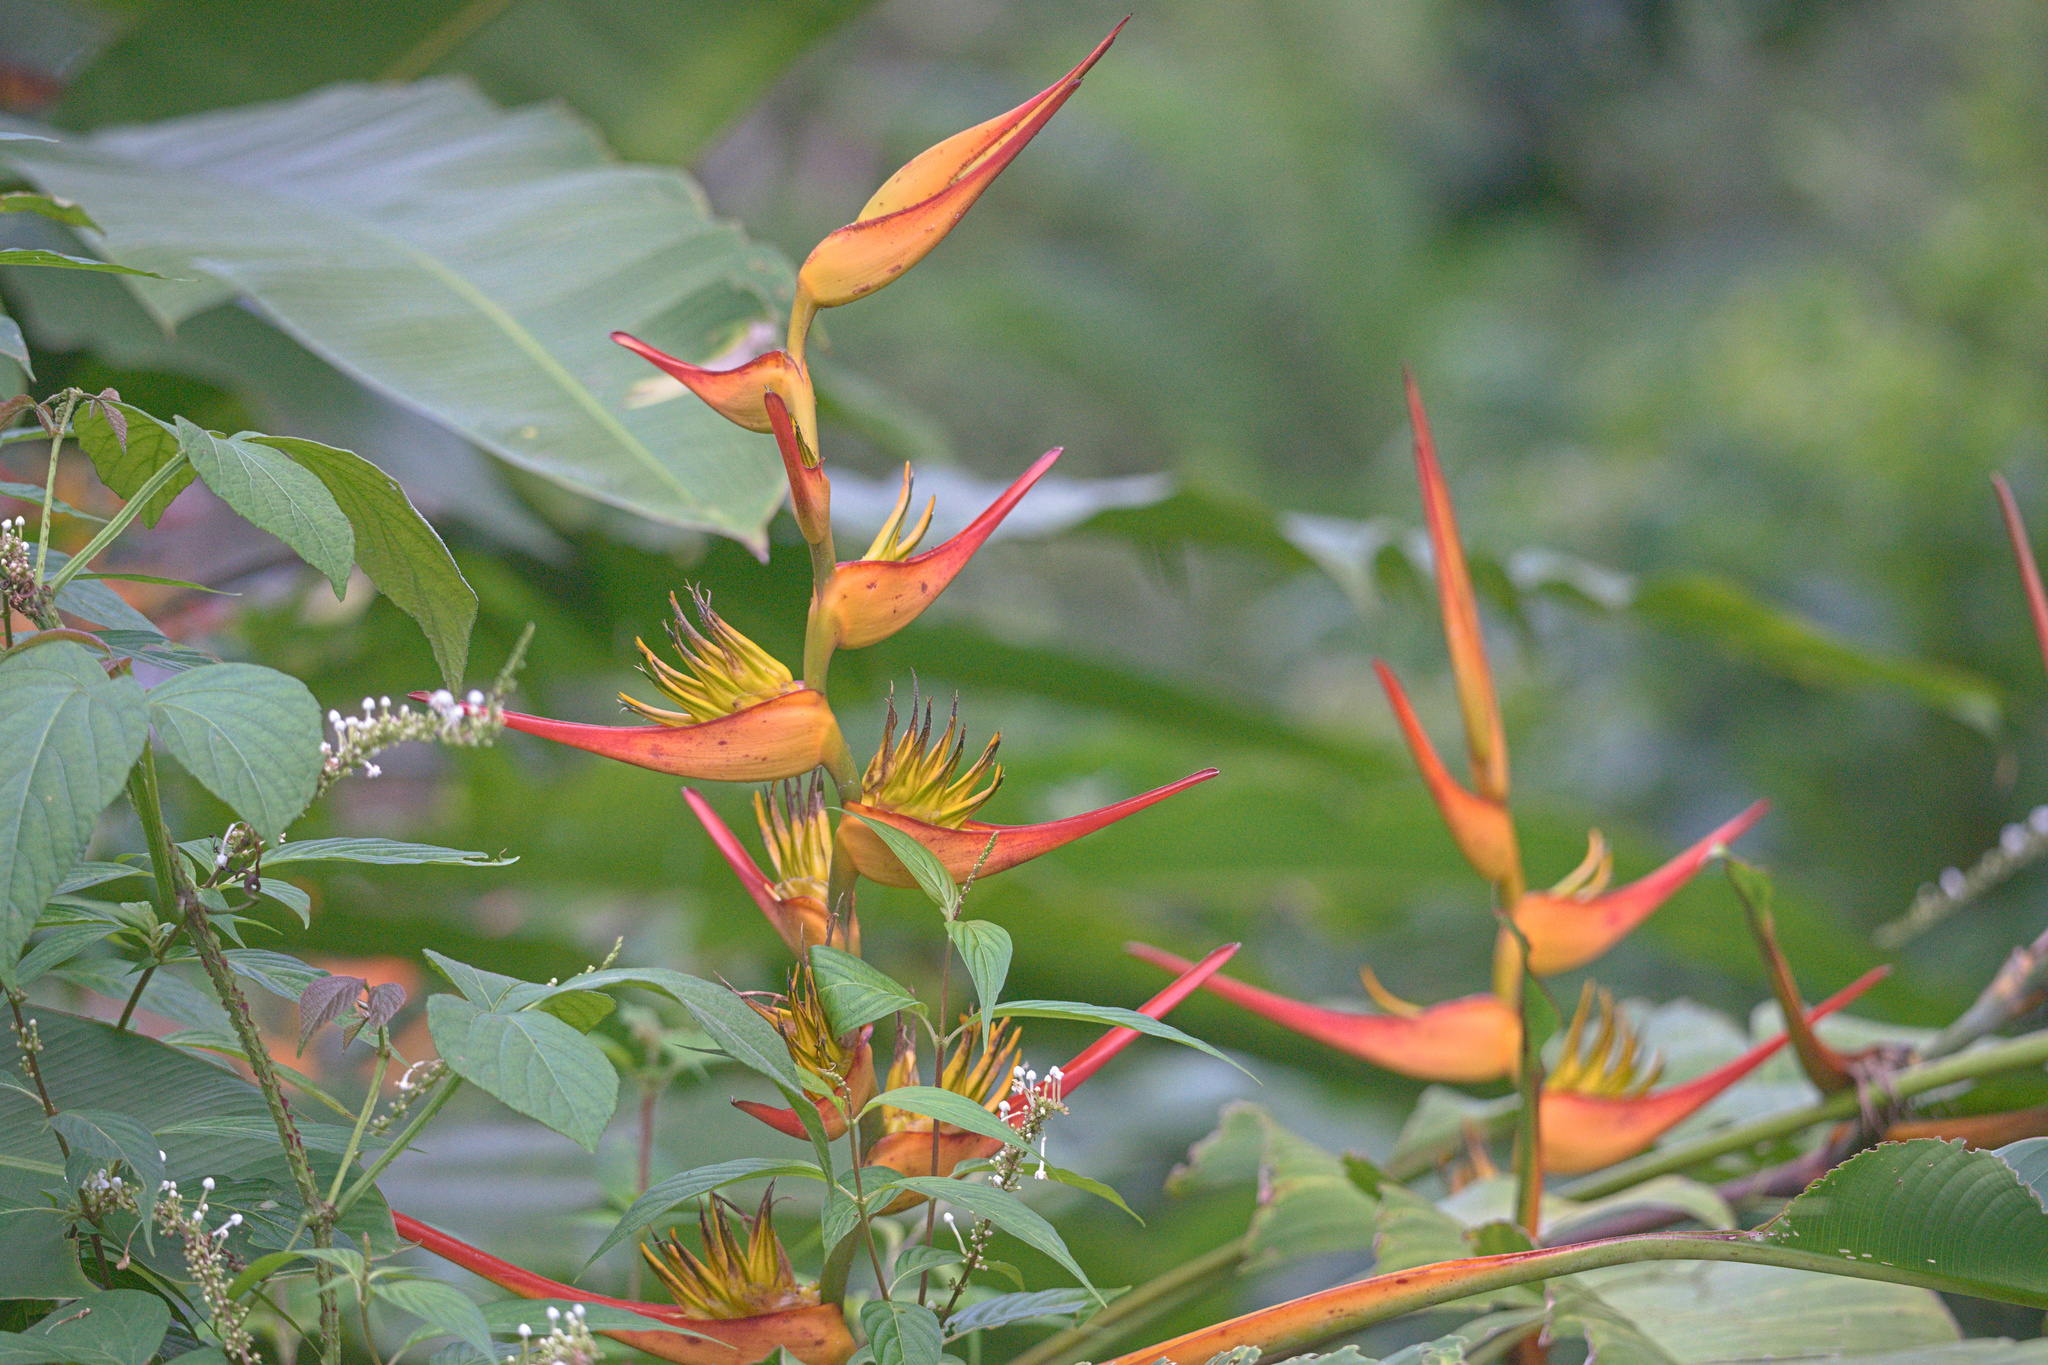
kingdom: Plantae
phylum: Tracheophyta
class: Liliopsida
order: Zingiberales
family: Heliconiaceae
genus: Heliconia
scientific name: Heliconia latispatha
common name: Expanded lobsterclaw
